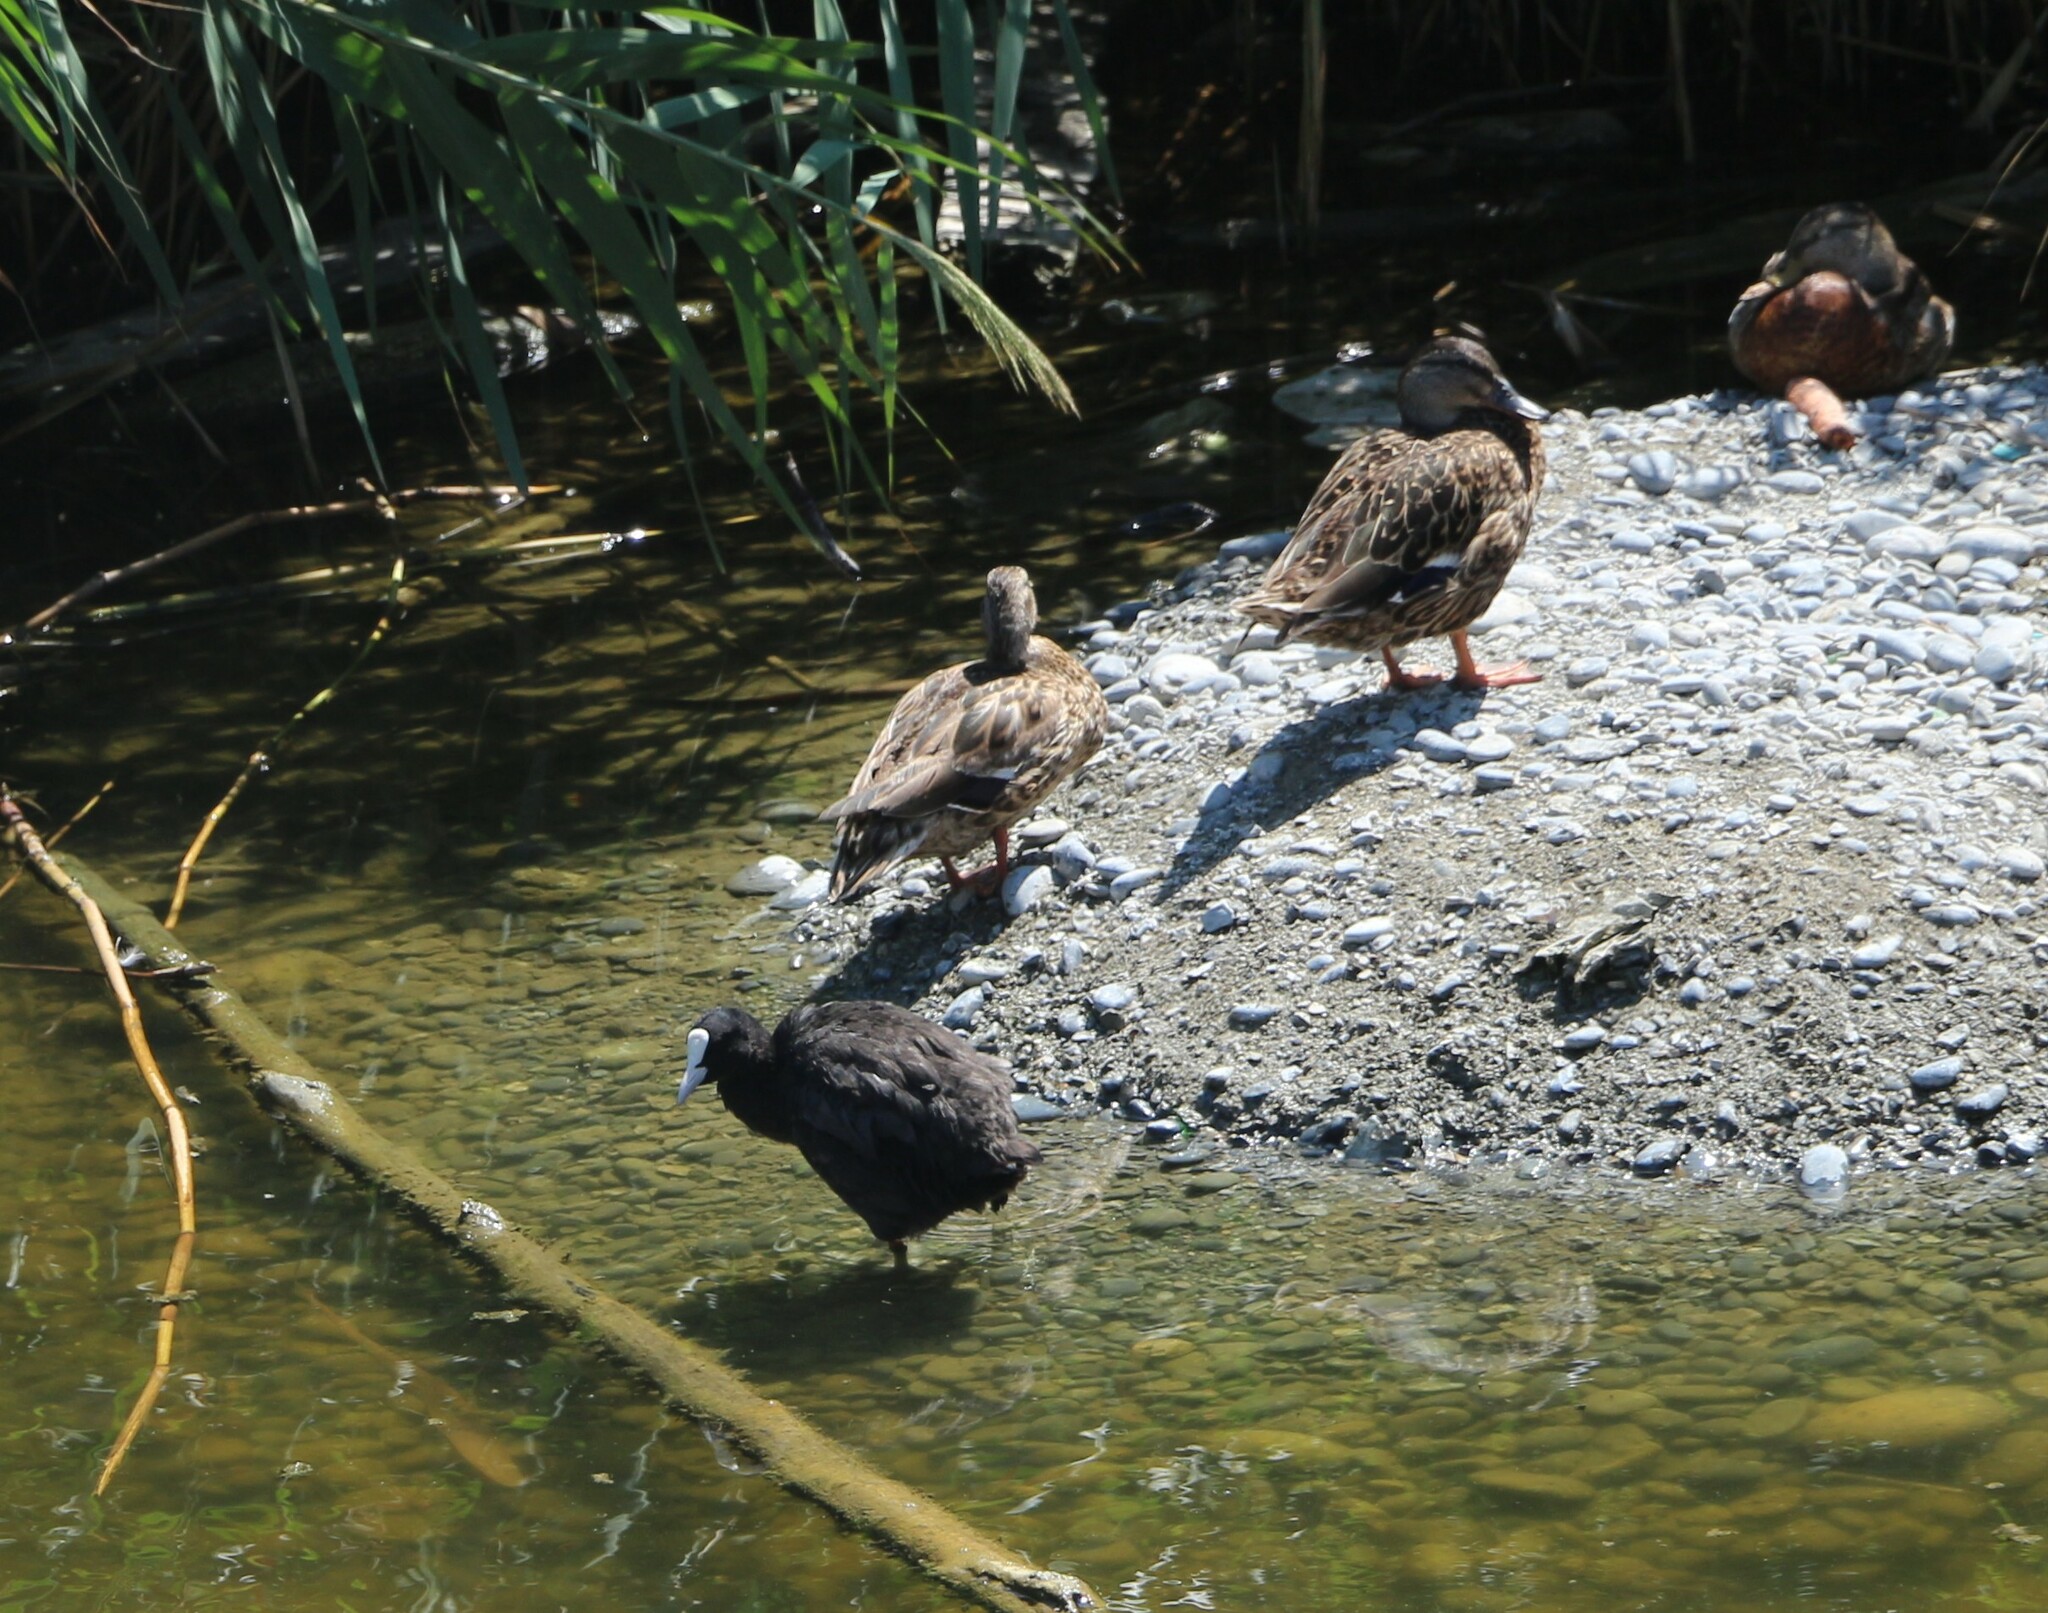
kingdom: Animalia
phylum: Chordata
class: Aves
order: Anseriformes
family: Anatidae
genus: Anas
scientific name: Anas platyrhynchos
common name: Mallard
